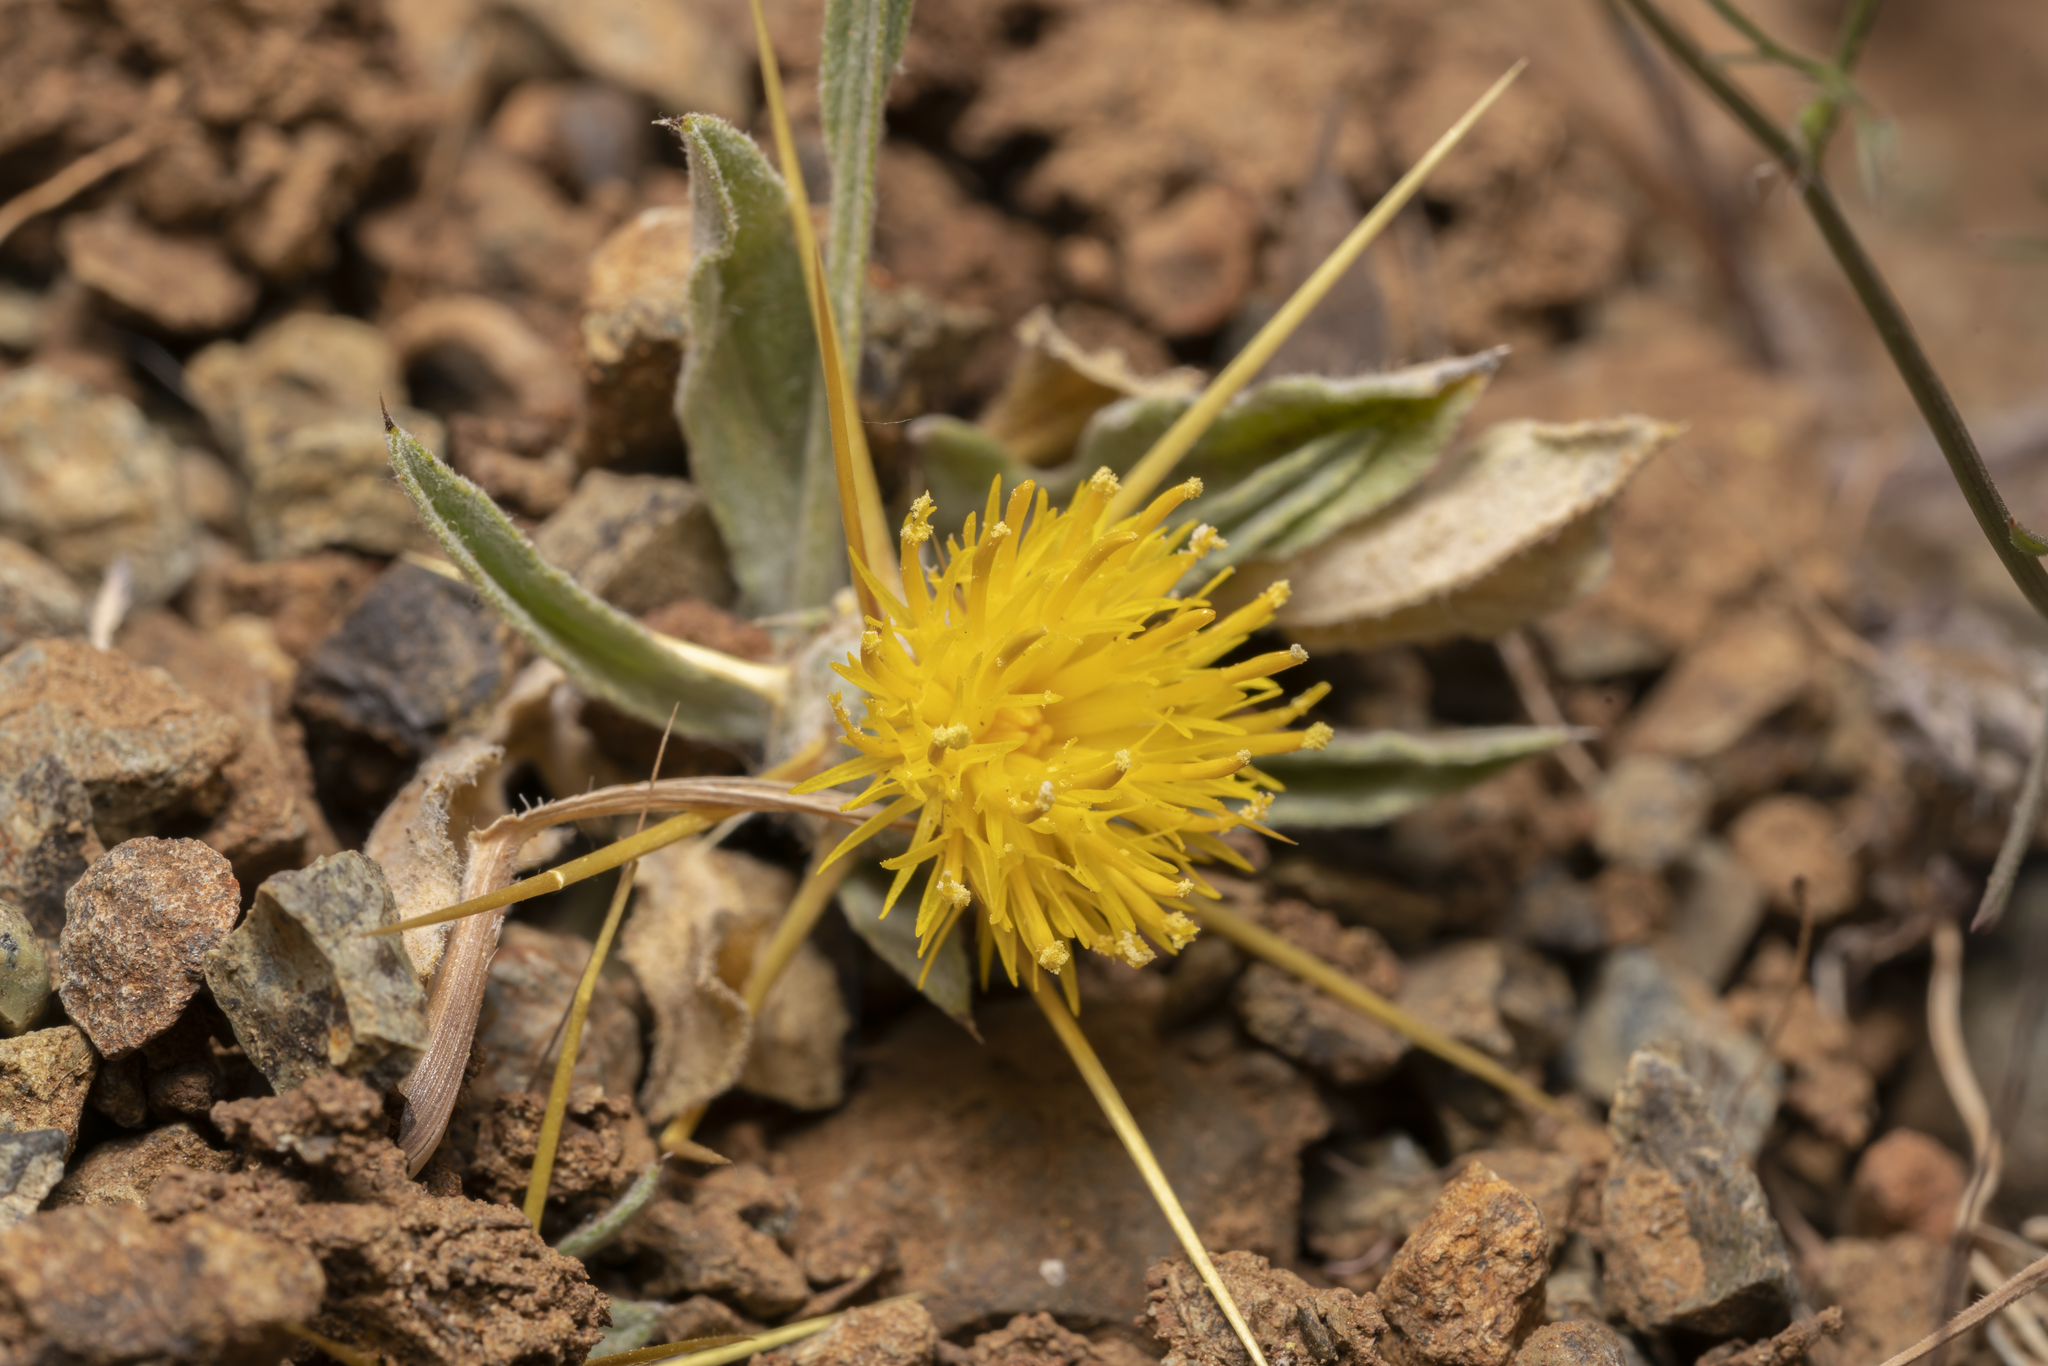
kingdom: Plantae
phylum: Tracheophyta
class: Magnoliopsida
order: Asterales
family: Asteraceae
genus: Centaurea
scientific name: Centaurea solstitialis
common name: Yellow star-thistle
